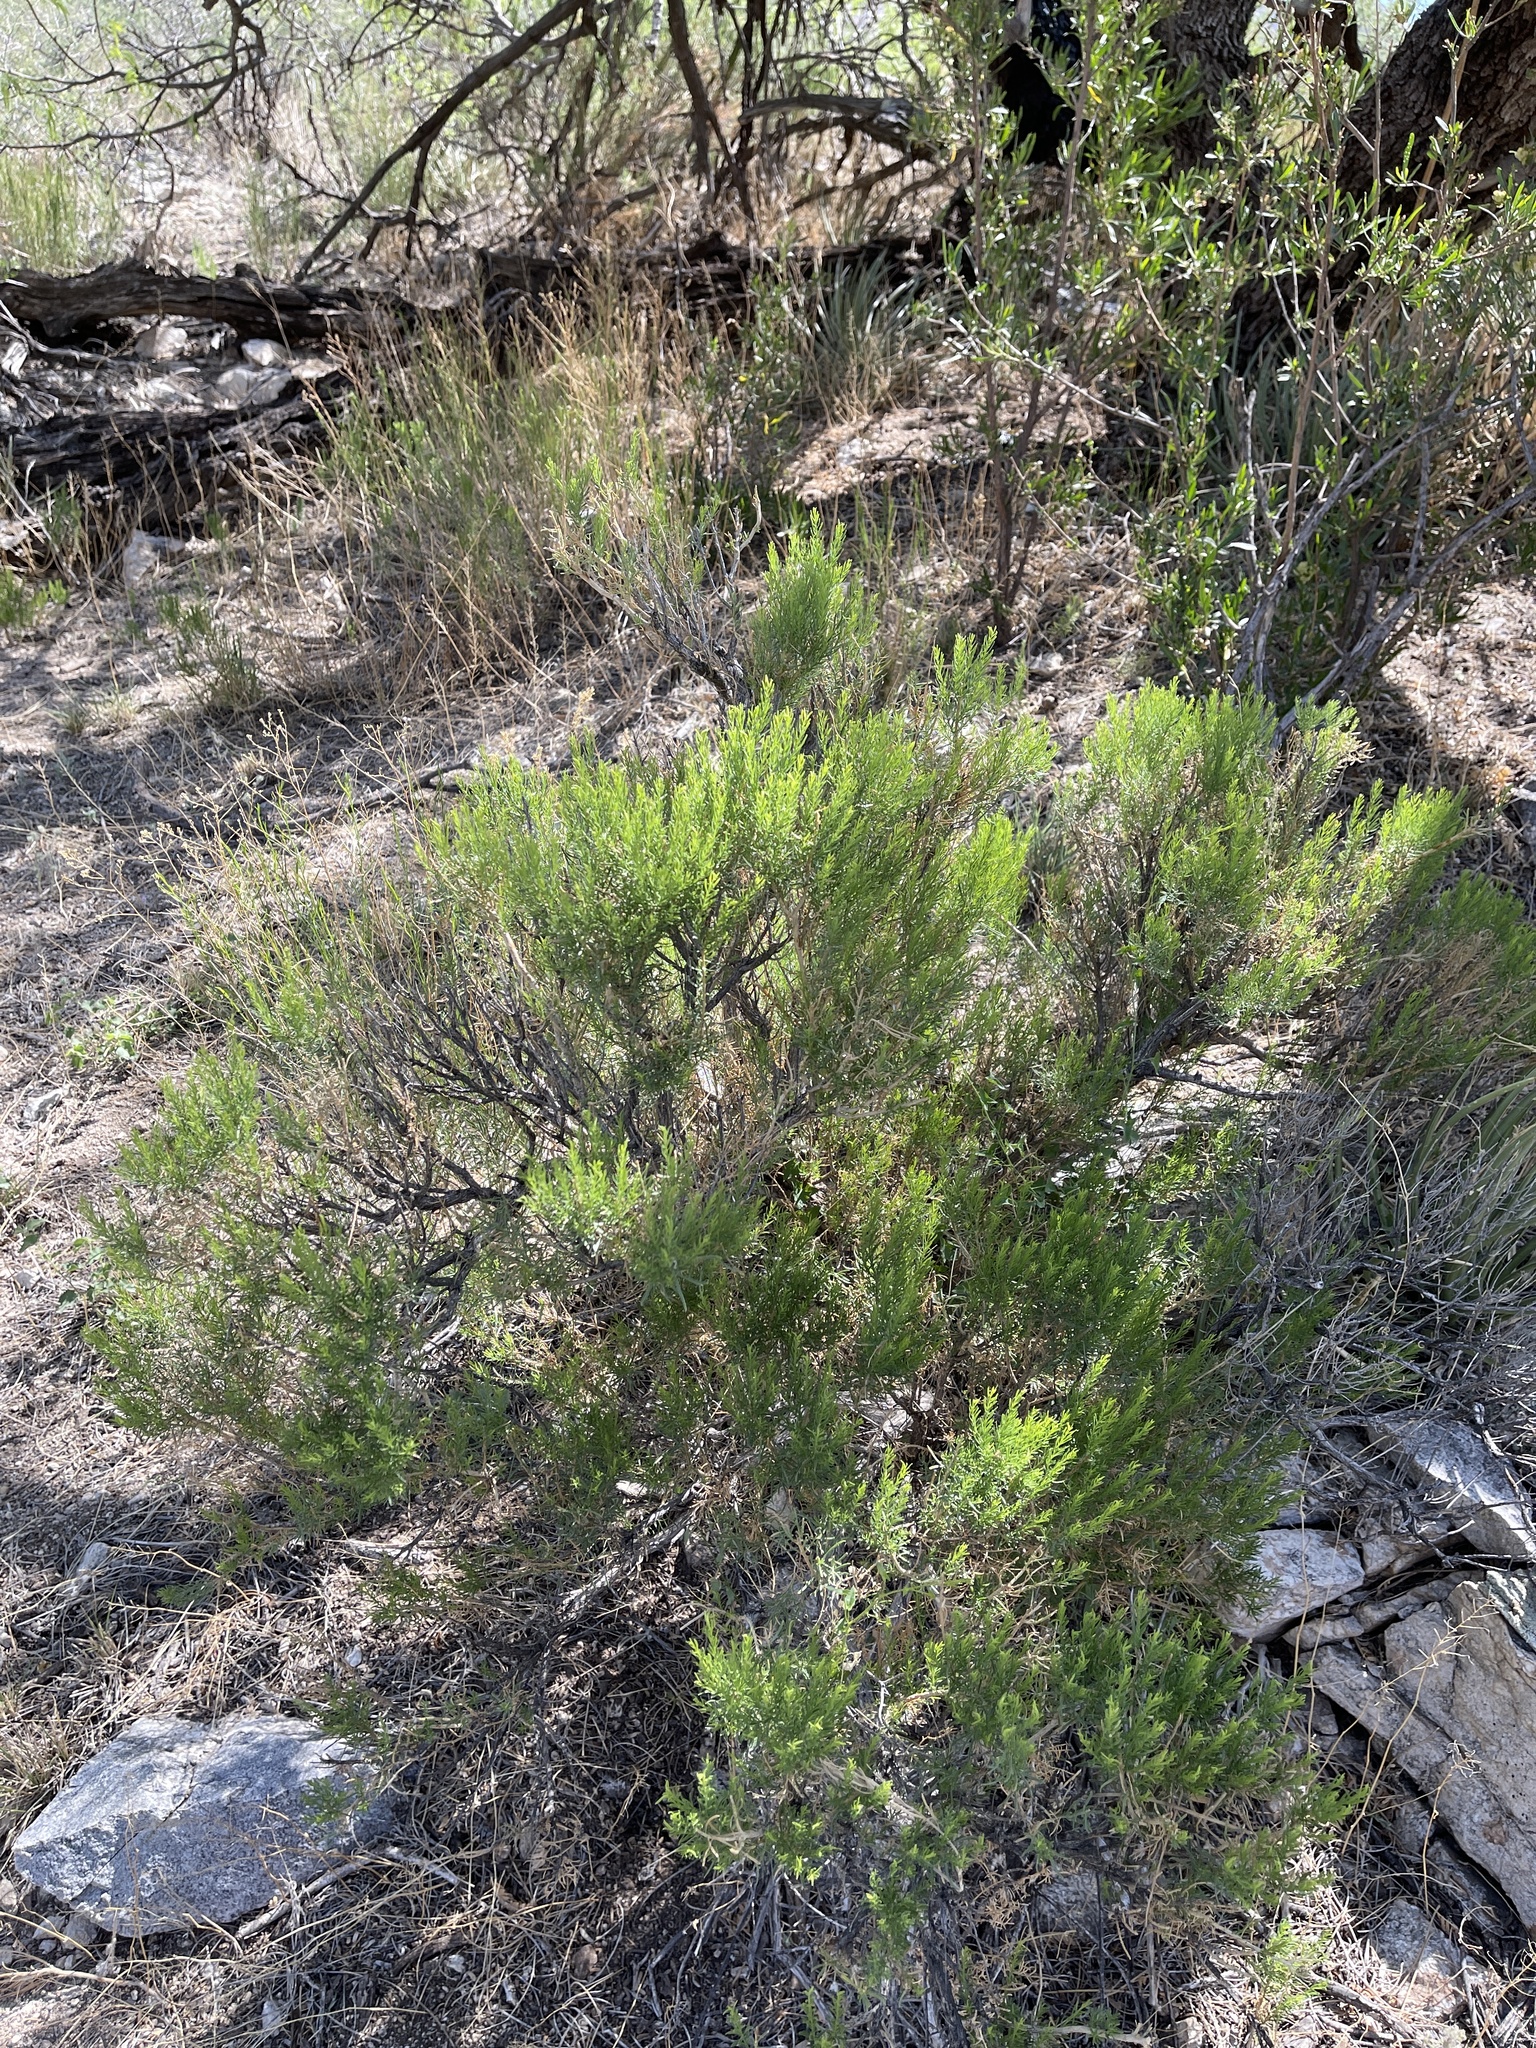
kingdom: Plantae
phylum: Tracheophyta
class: Magnoliopsida
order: Asterales
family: Asteraceae
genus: Ericameria
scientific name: Ericameria laricifolia
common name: Turpentine-bush
